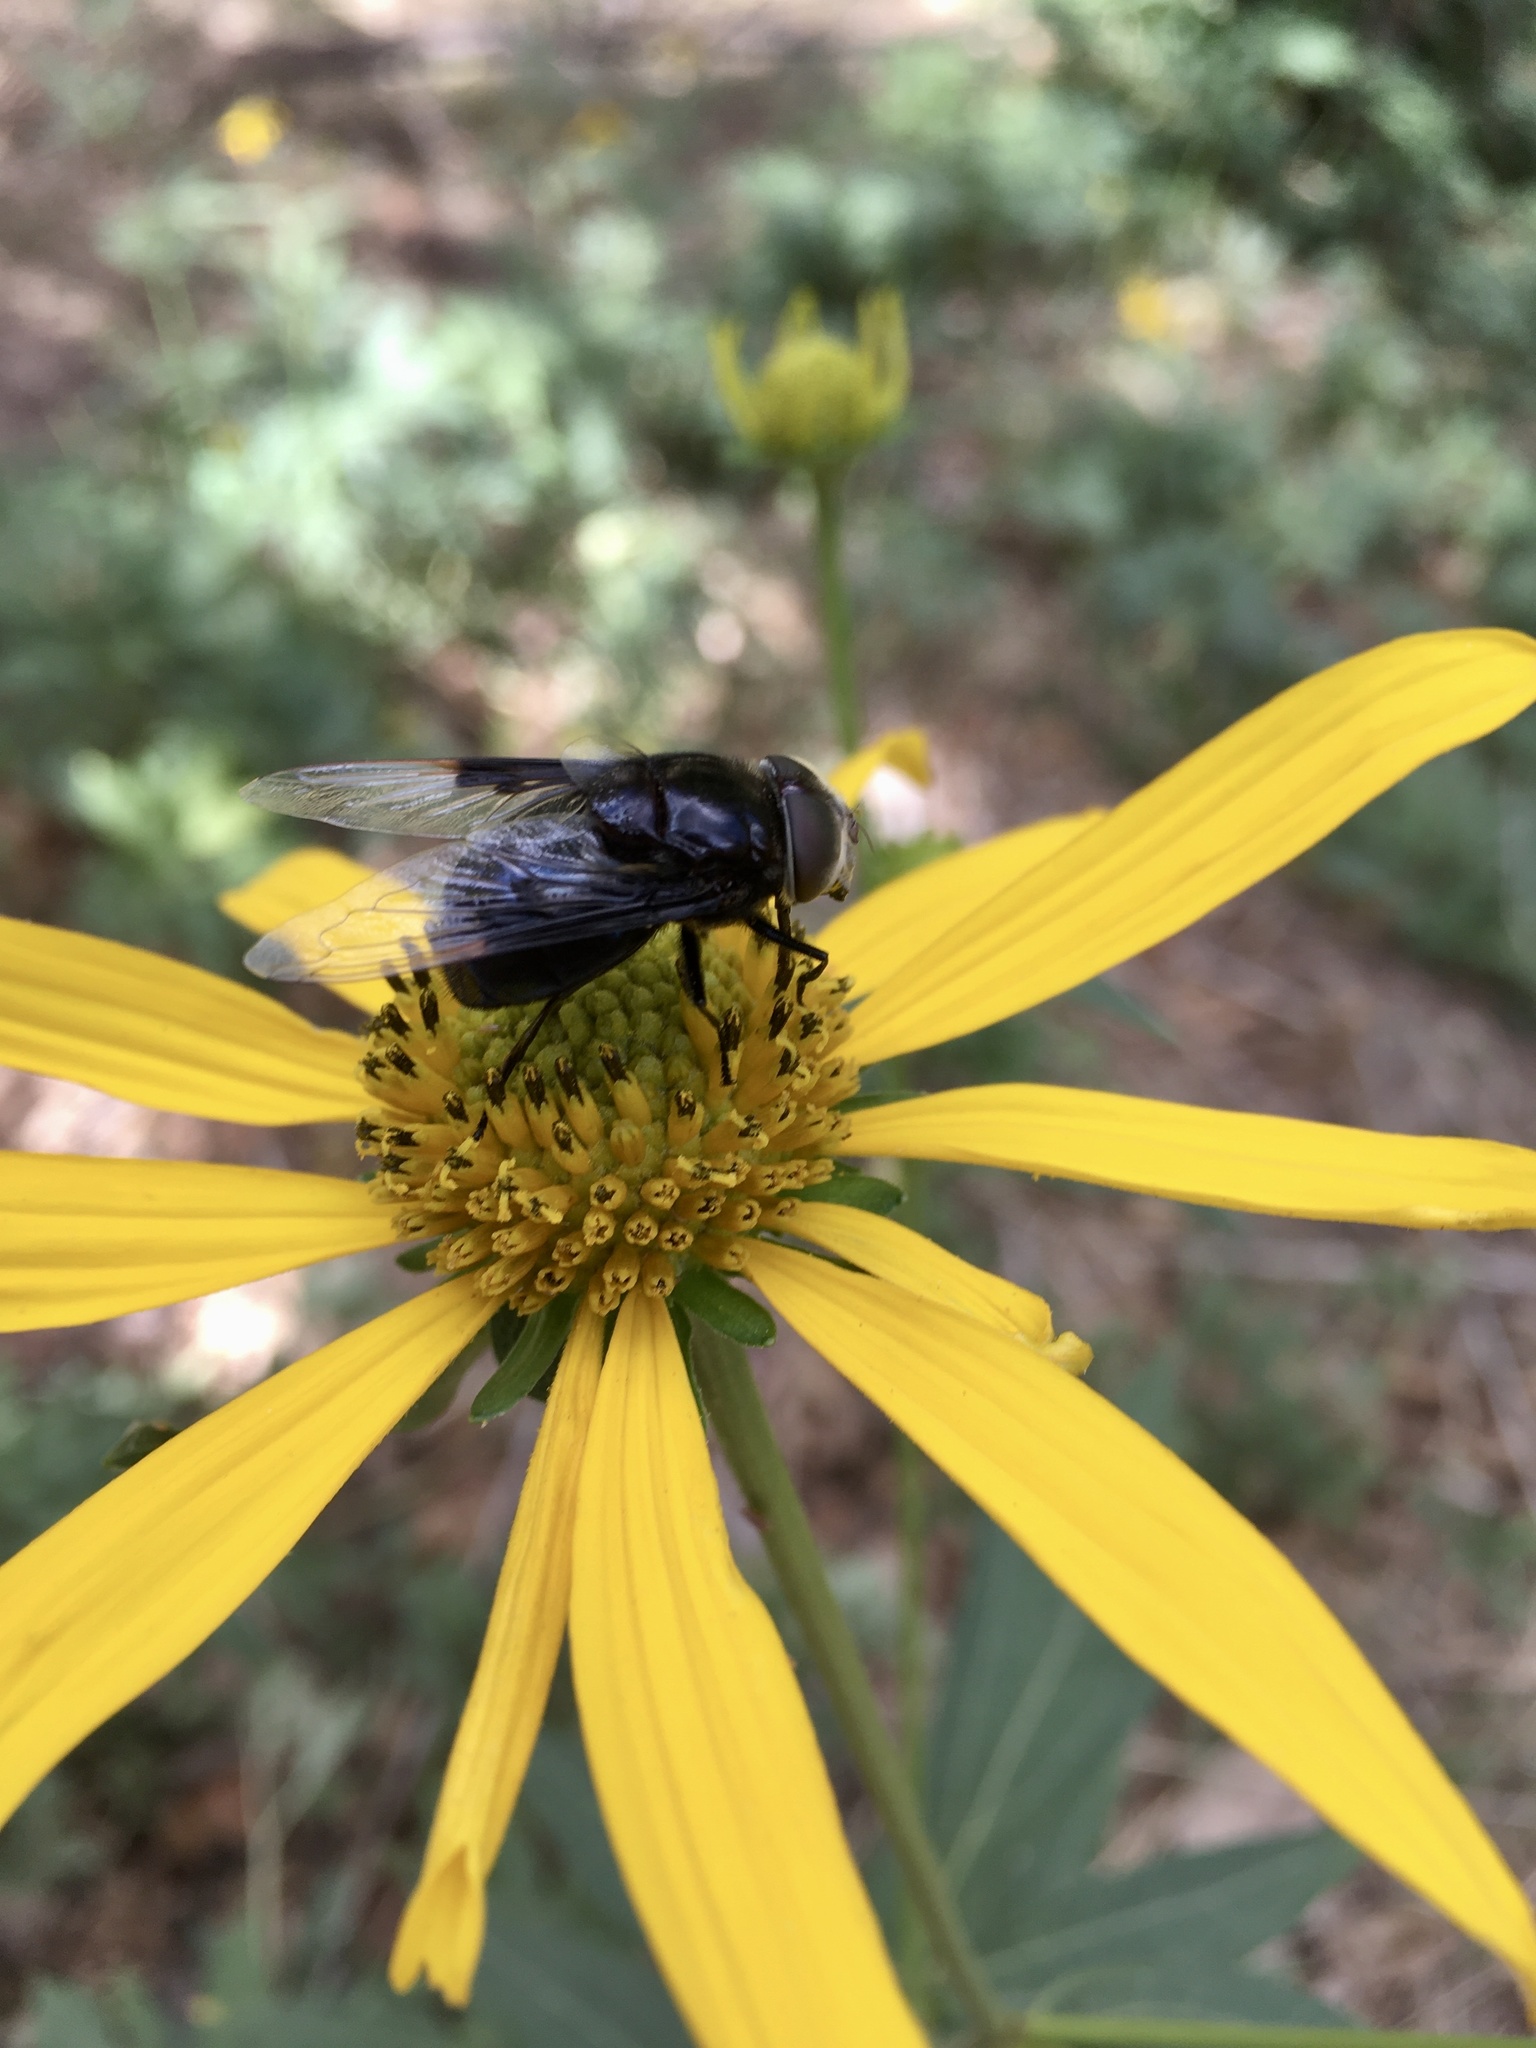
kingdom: Animalia
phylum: Arthropoda
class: Insecta
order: Diptera
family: Syrphidae
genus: Copestylum
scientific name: Copestylum violaceum
